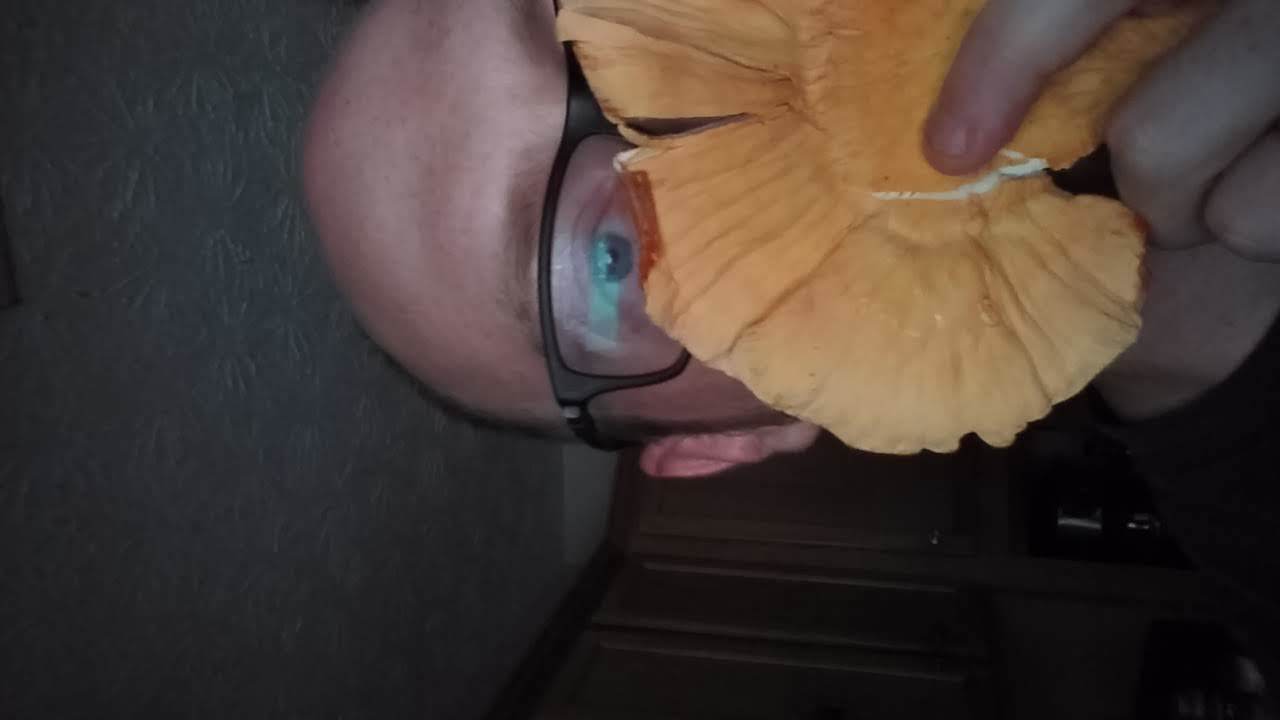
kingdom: Fungi
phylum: Basidiomycota
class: Agaricomycetes
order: Polyporales
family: Laetiporaceae
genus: Laetiporus
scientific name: Laetiporus sulphureus
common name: Chicken of the woods
